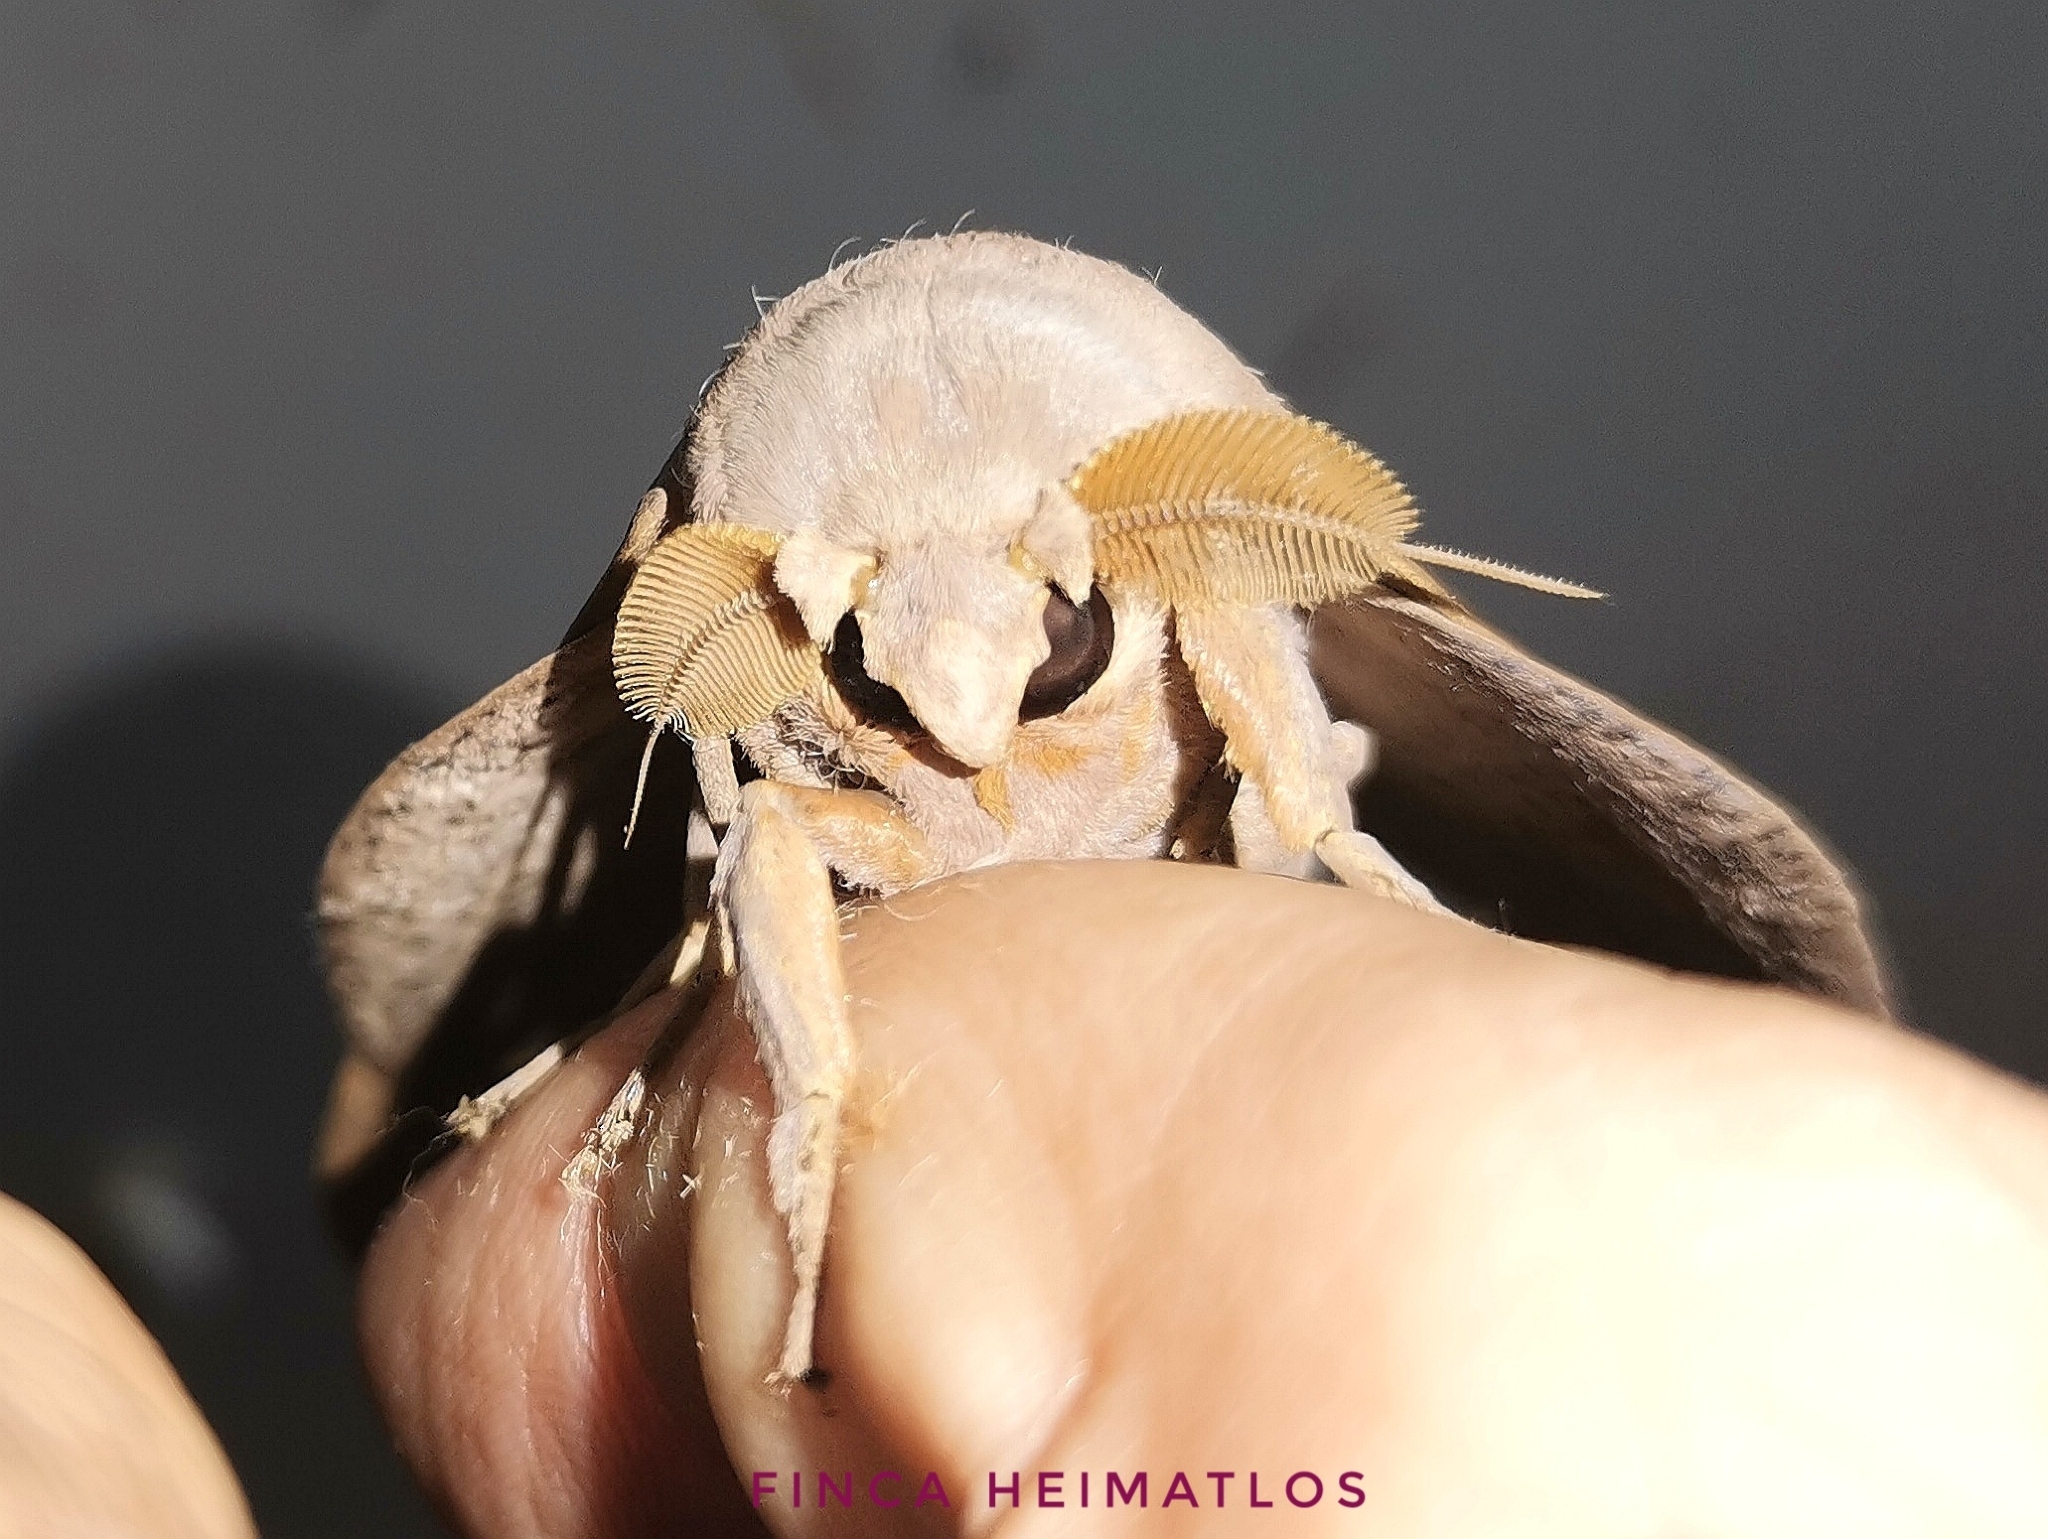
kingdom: Animalia
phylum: Arthropoda
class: Insecta
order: Lepidoptera
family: Saturniidae
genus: Othorene
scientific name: Othorene hodeva
